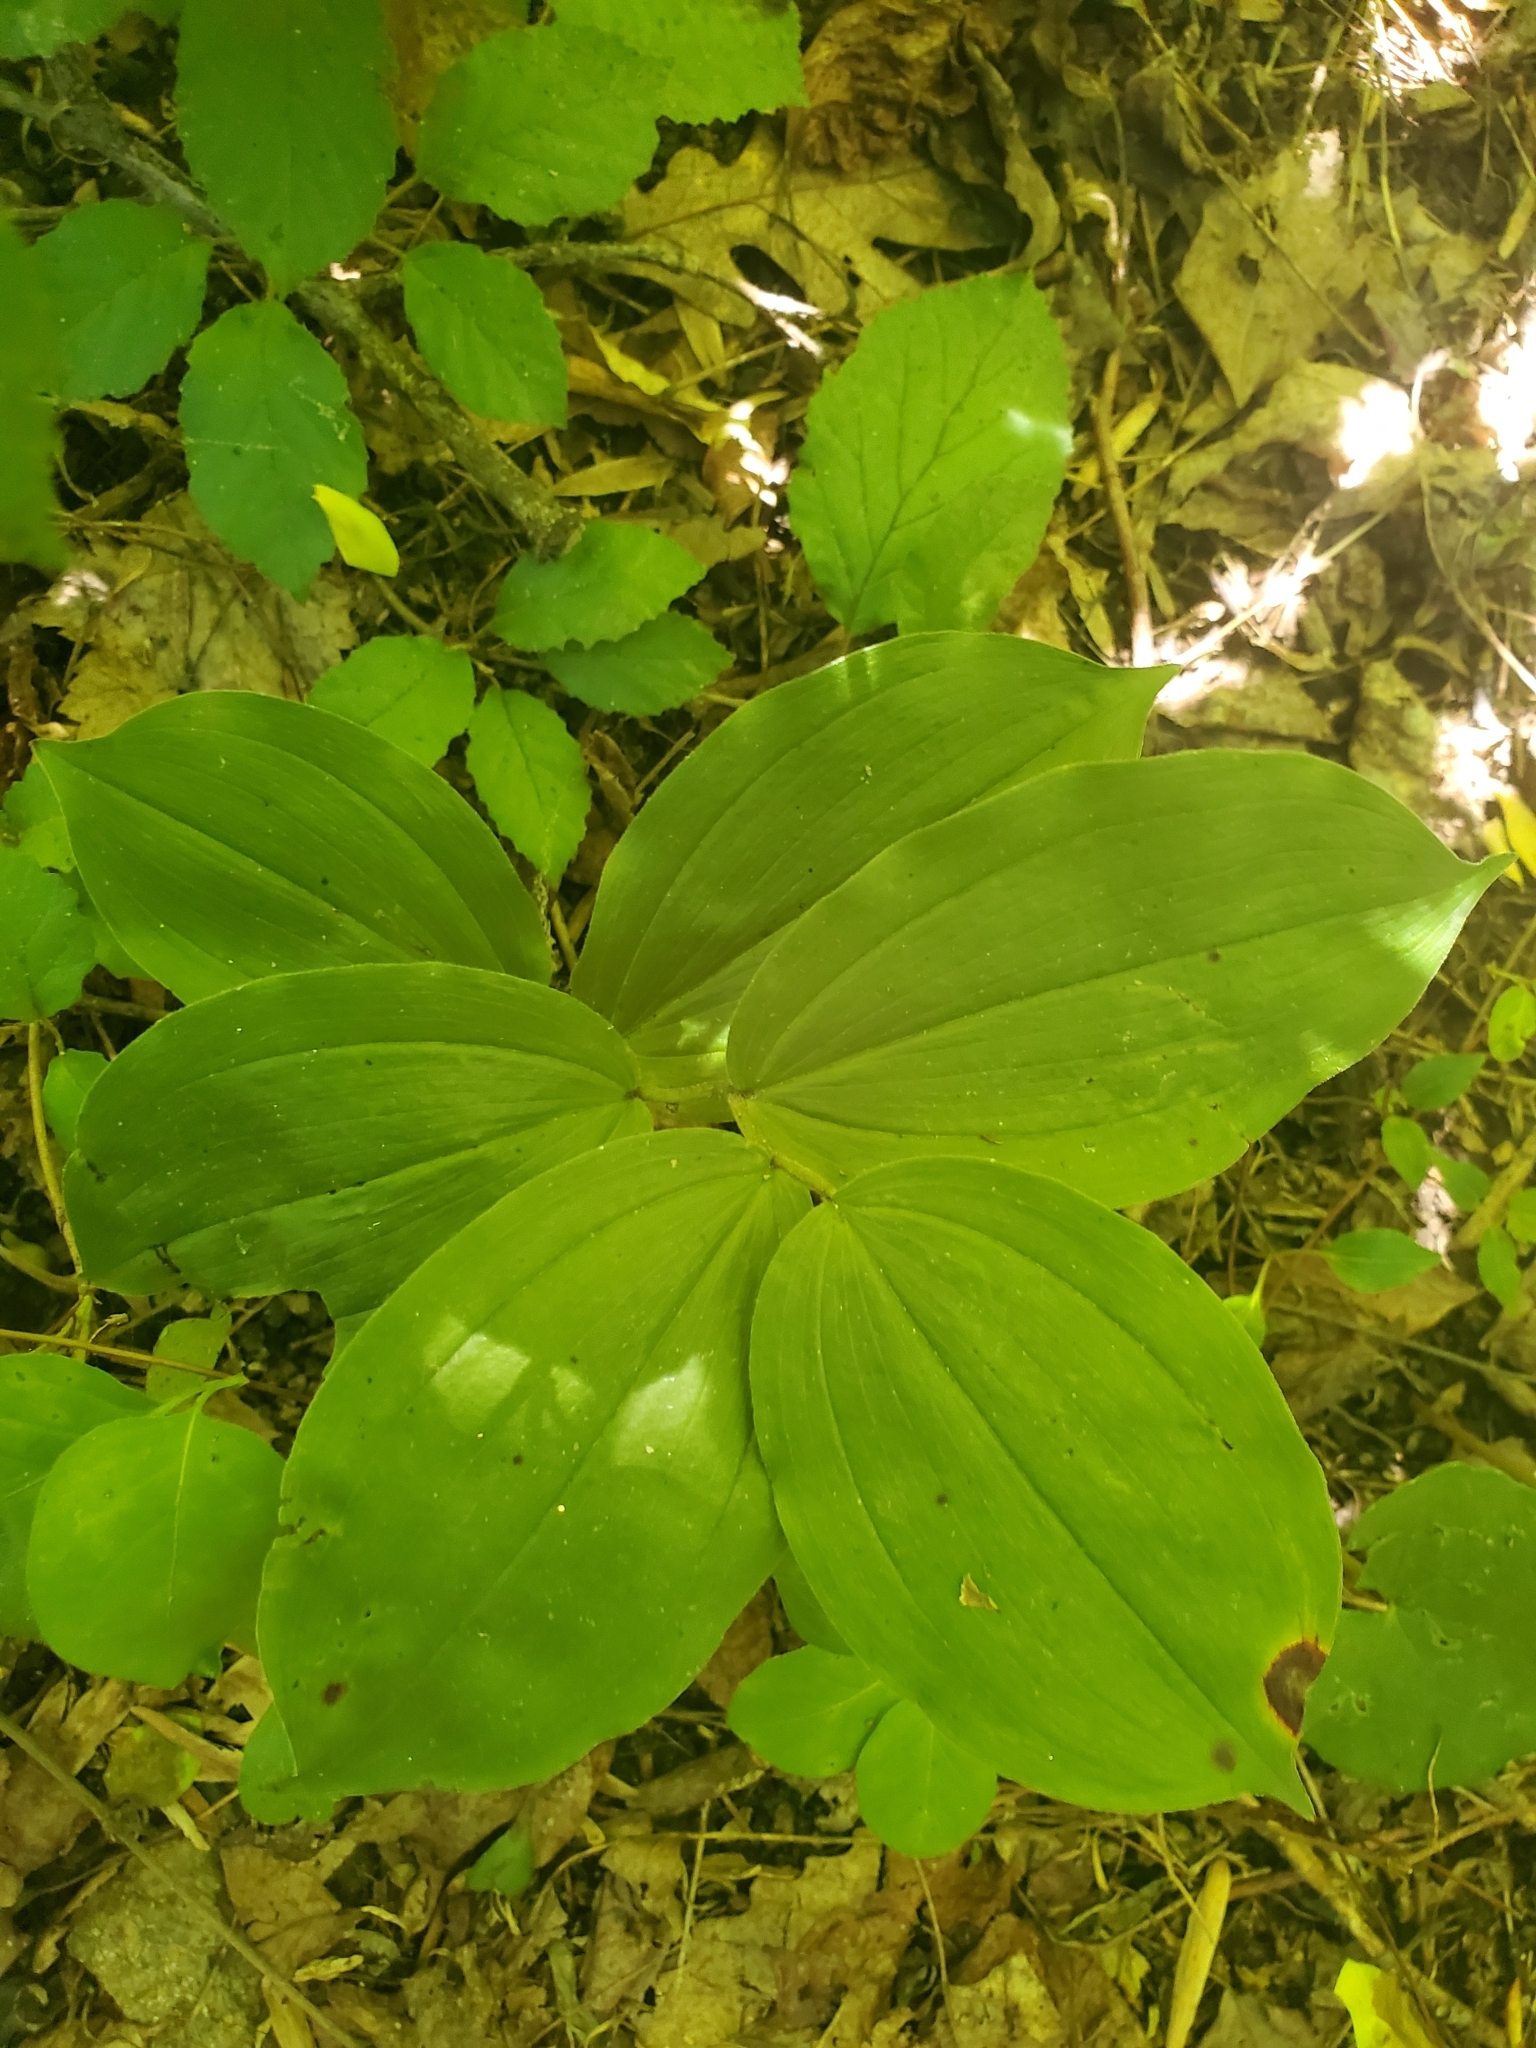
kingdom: Plantae
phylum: Tracheophyta
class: Liliopsida
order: Asparagales
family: Asparagaceae
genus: Maianthemum
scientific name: Maianthemum racemosum
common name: False spikenard
